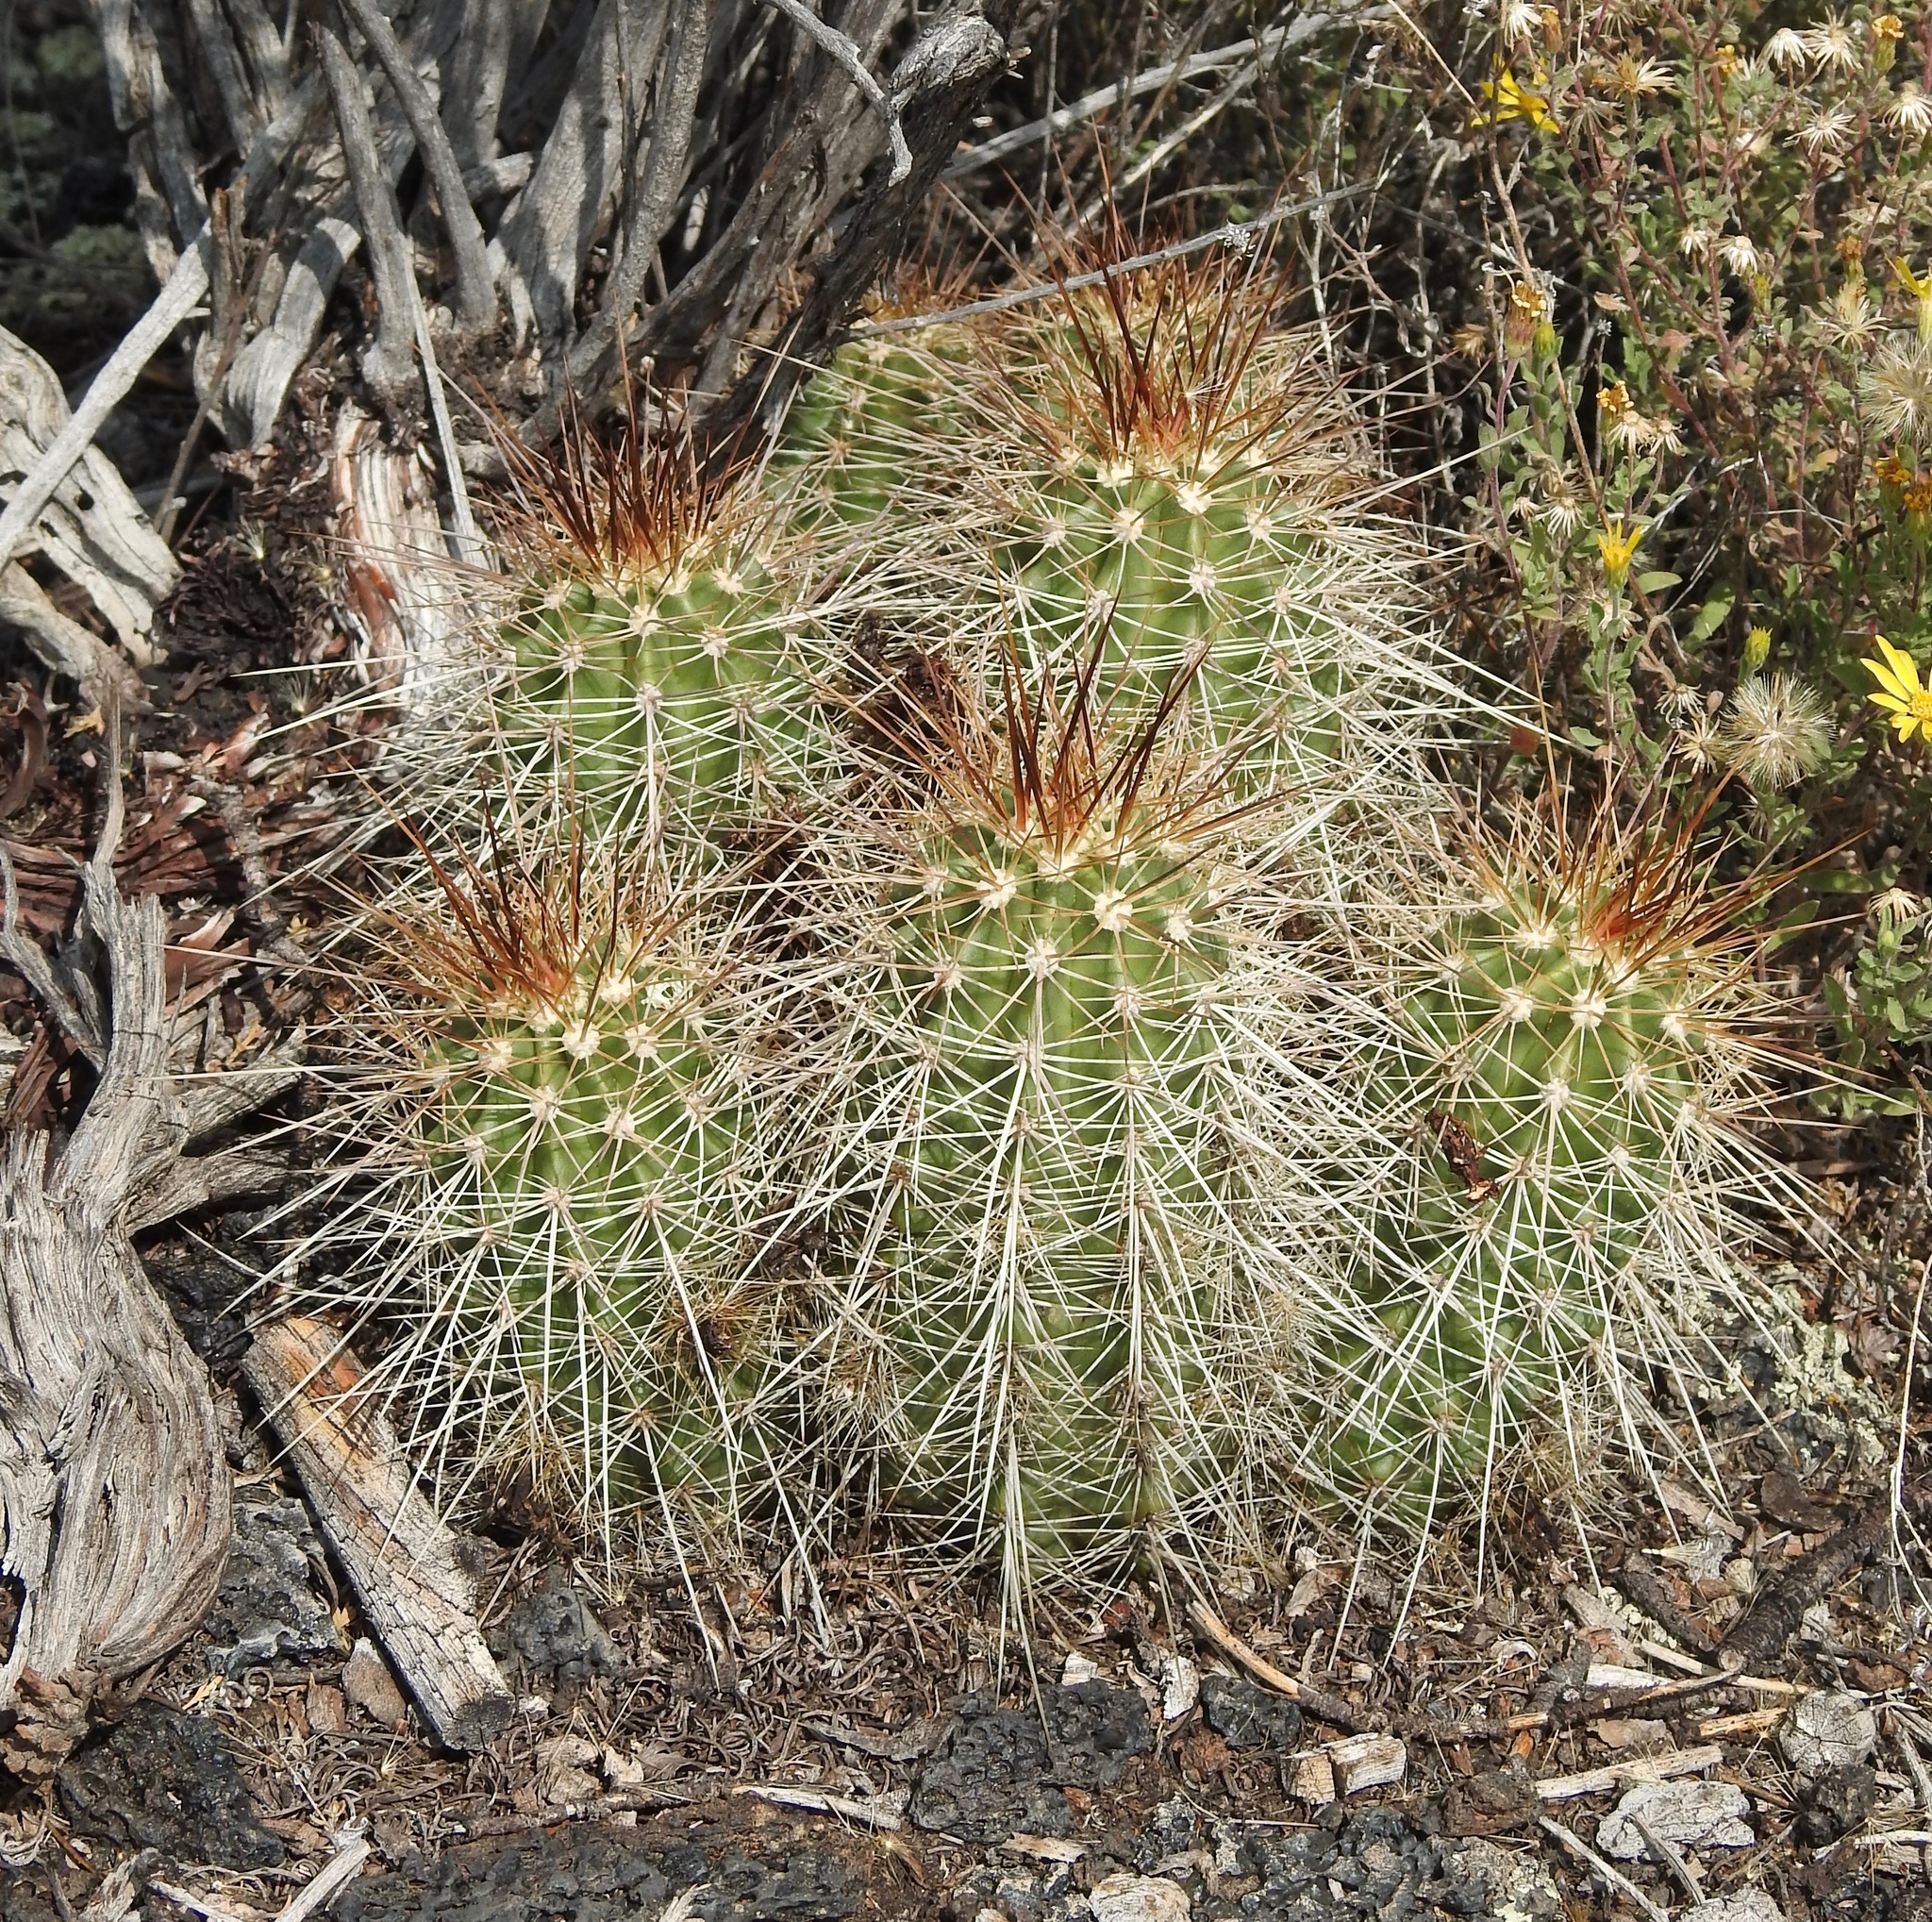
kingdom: Plantae
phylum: Tracheophyta
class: Magnoliopsida
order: Caryophyllales
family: Cactaceae
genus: Echinocereus
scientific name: Echinocereus coccineus
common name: Scarlet hedgehog cactus
